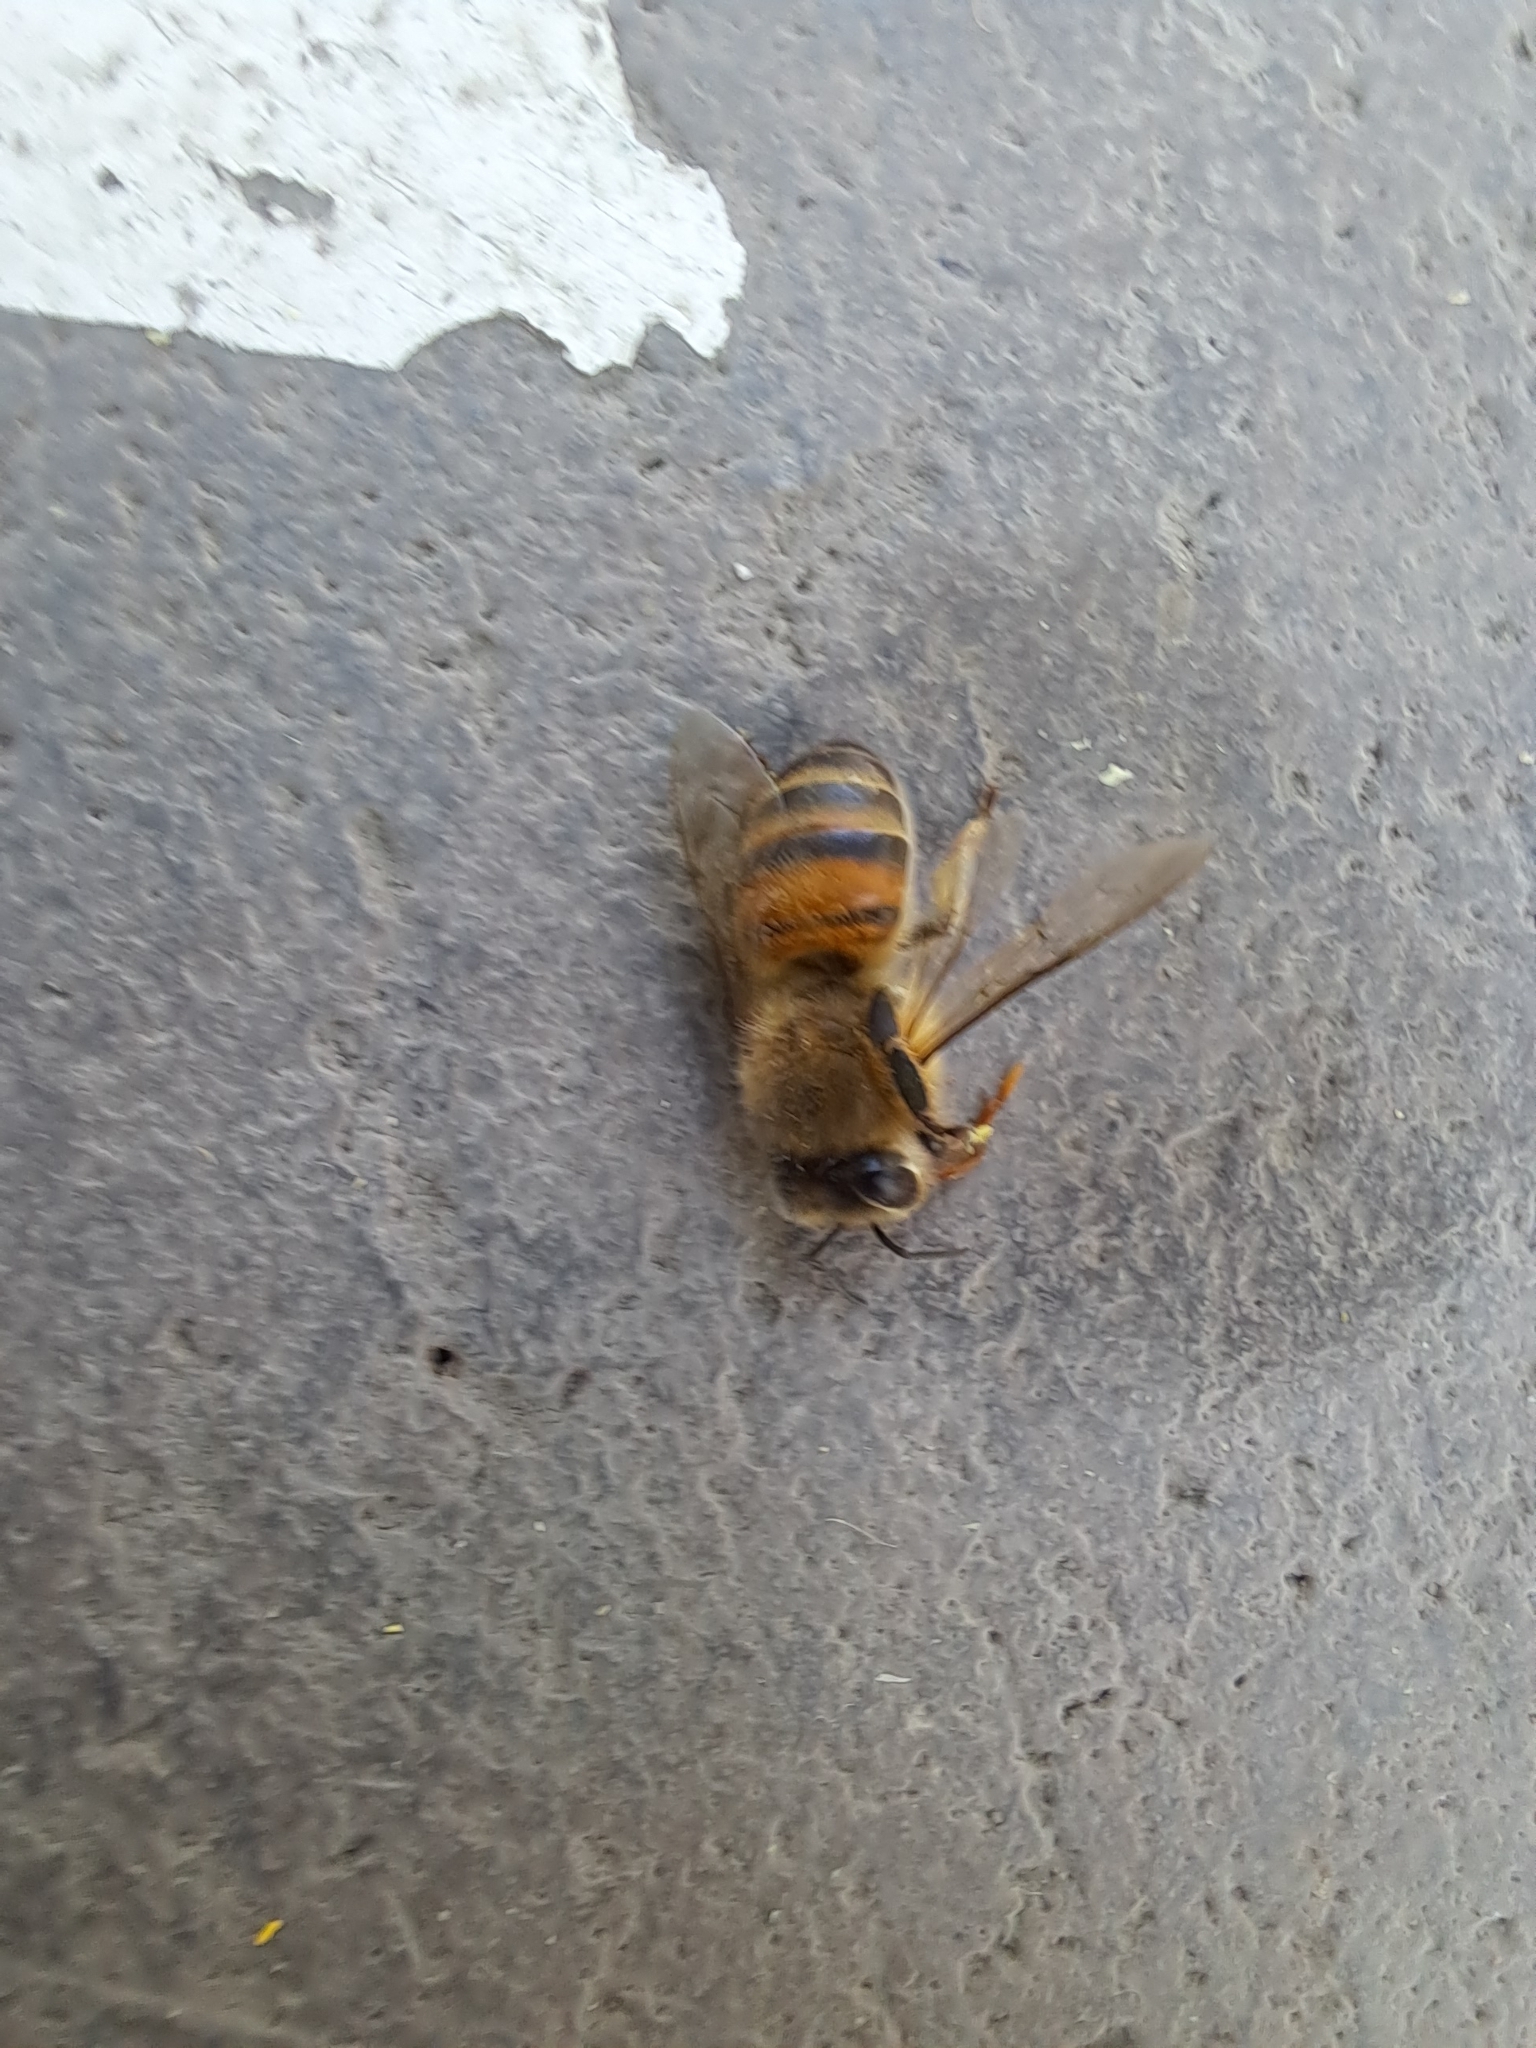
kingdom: Animalia
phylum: Arthropoda
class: Insecta
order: Hymenoptera
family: Apidae
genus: Apis
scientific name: Apis mellifera
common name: Honey bee
